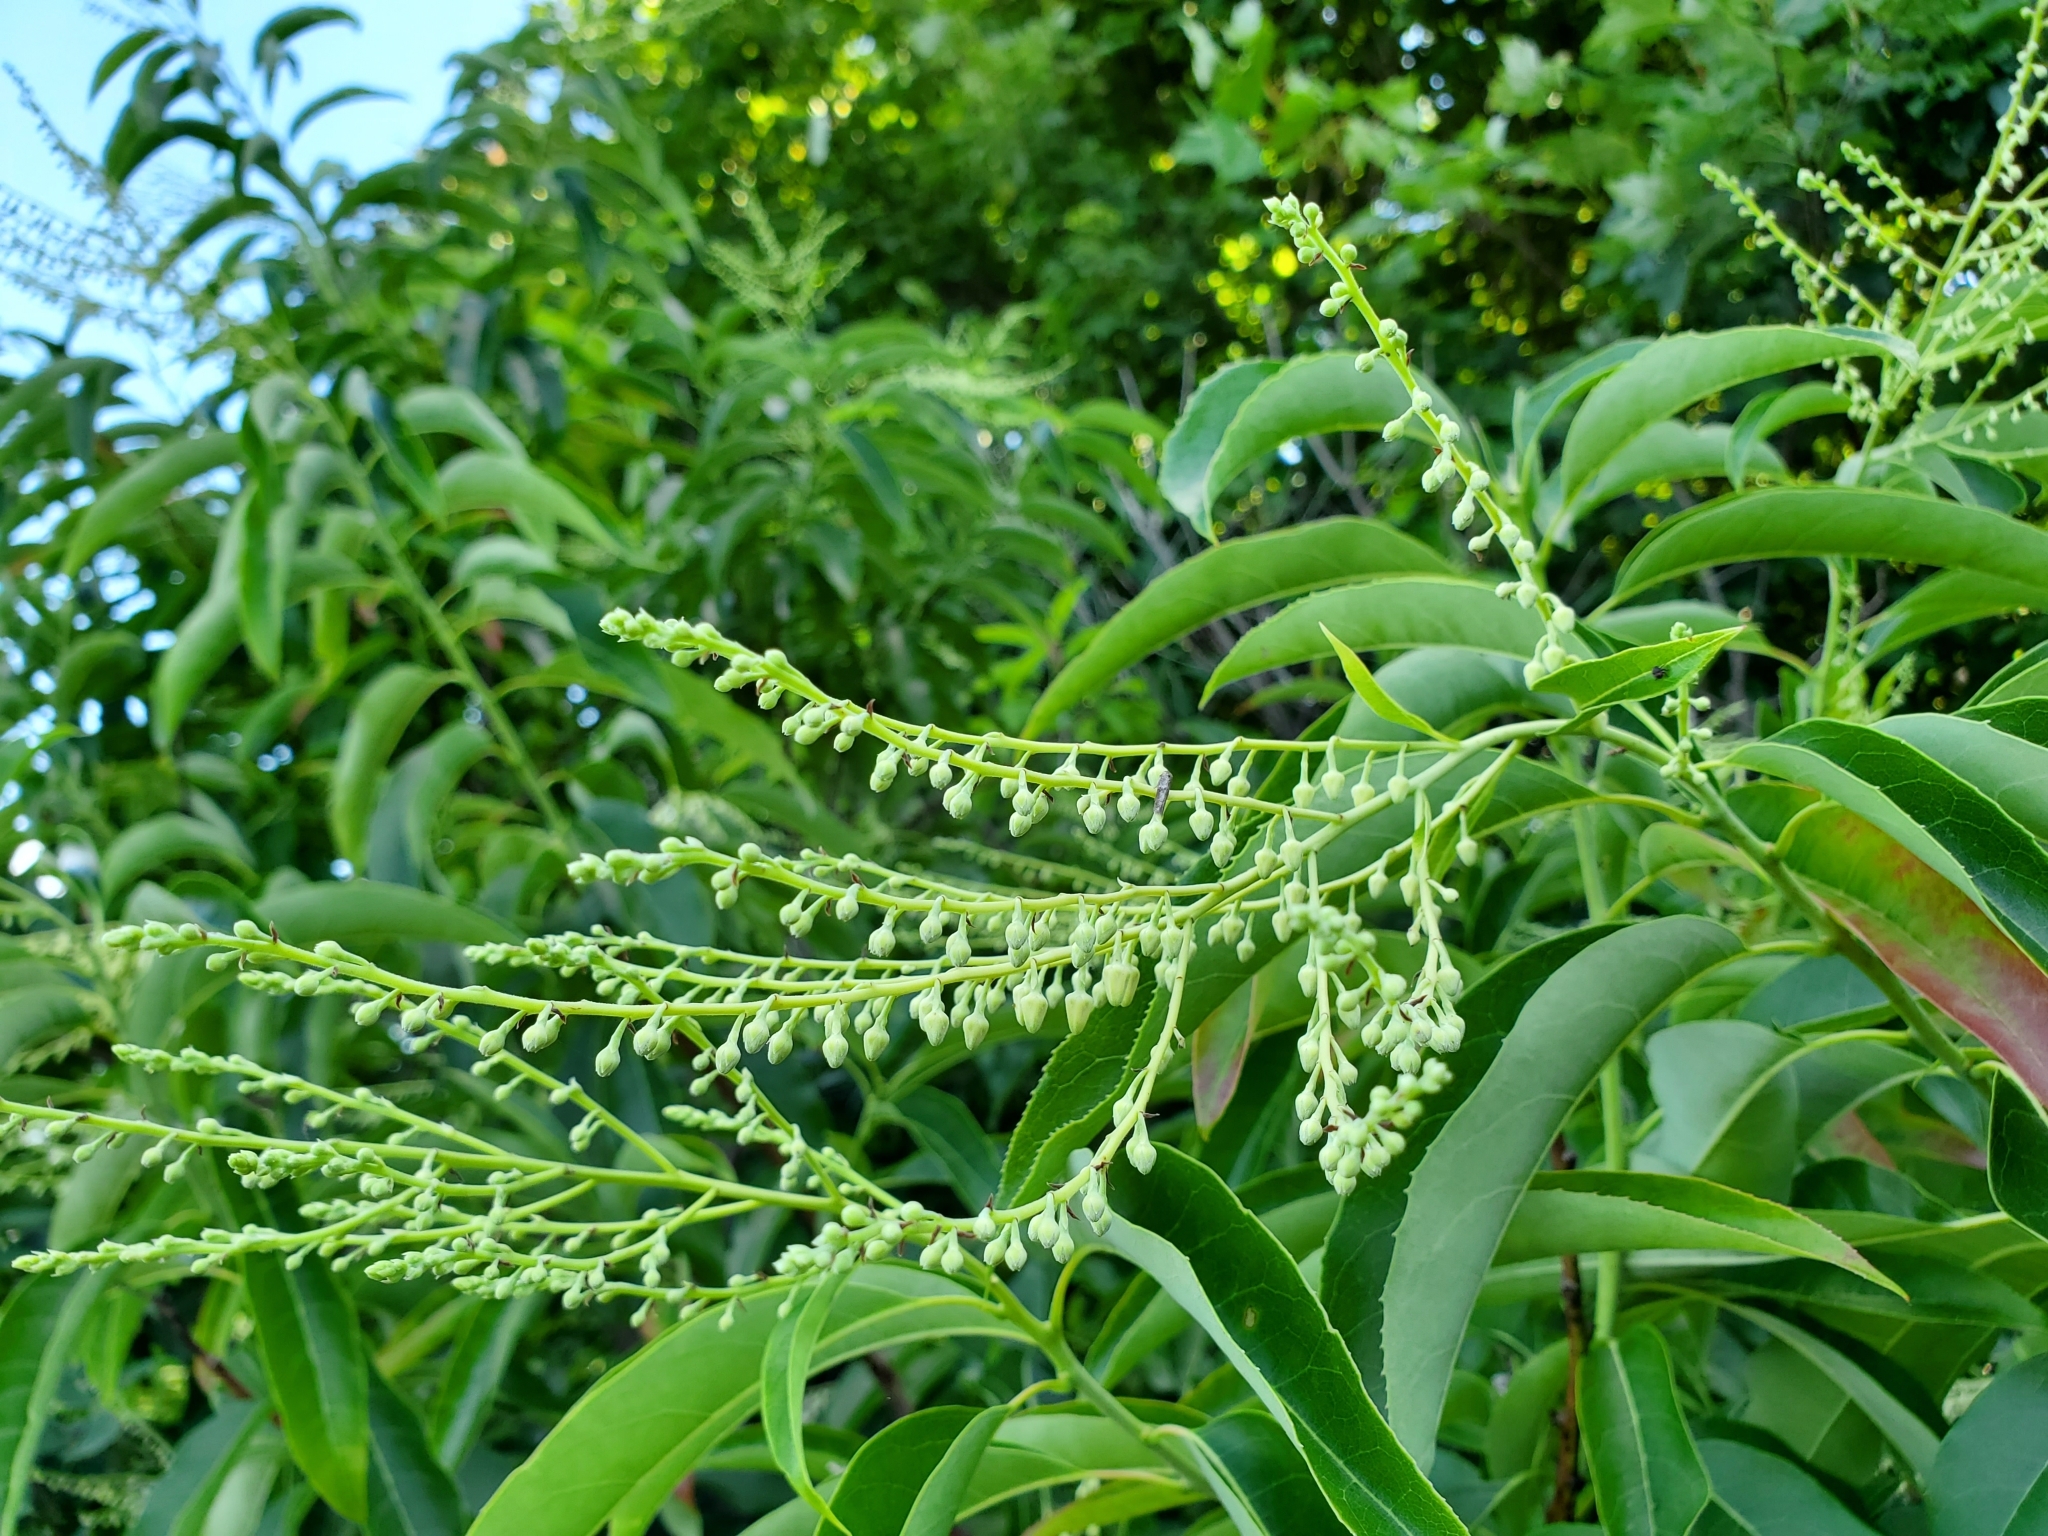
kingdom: Plantae
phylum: Tracheophyta
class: Magnoliopsida
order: Ericales
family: Ericaceae
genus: Oxydendrum
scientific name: Oxydendrum arboreum
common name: Sourwood
